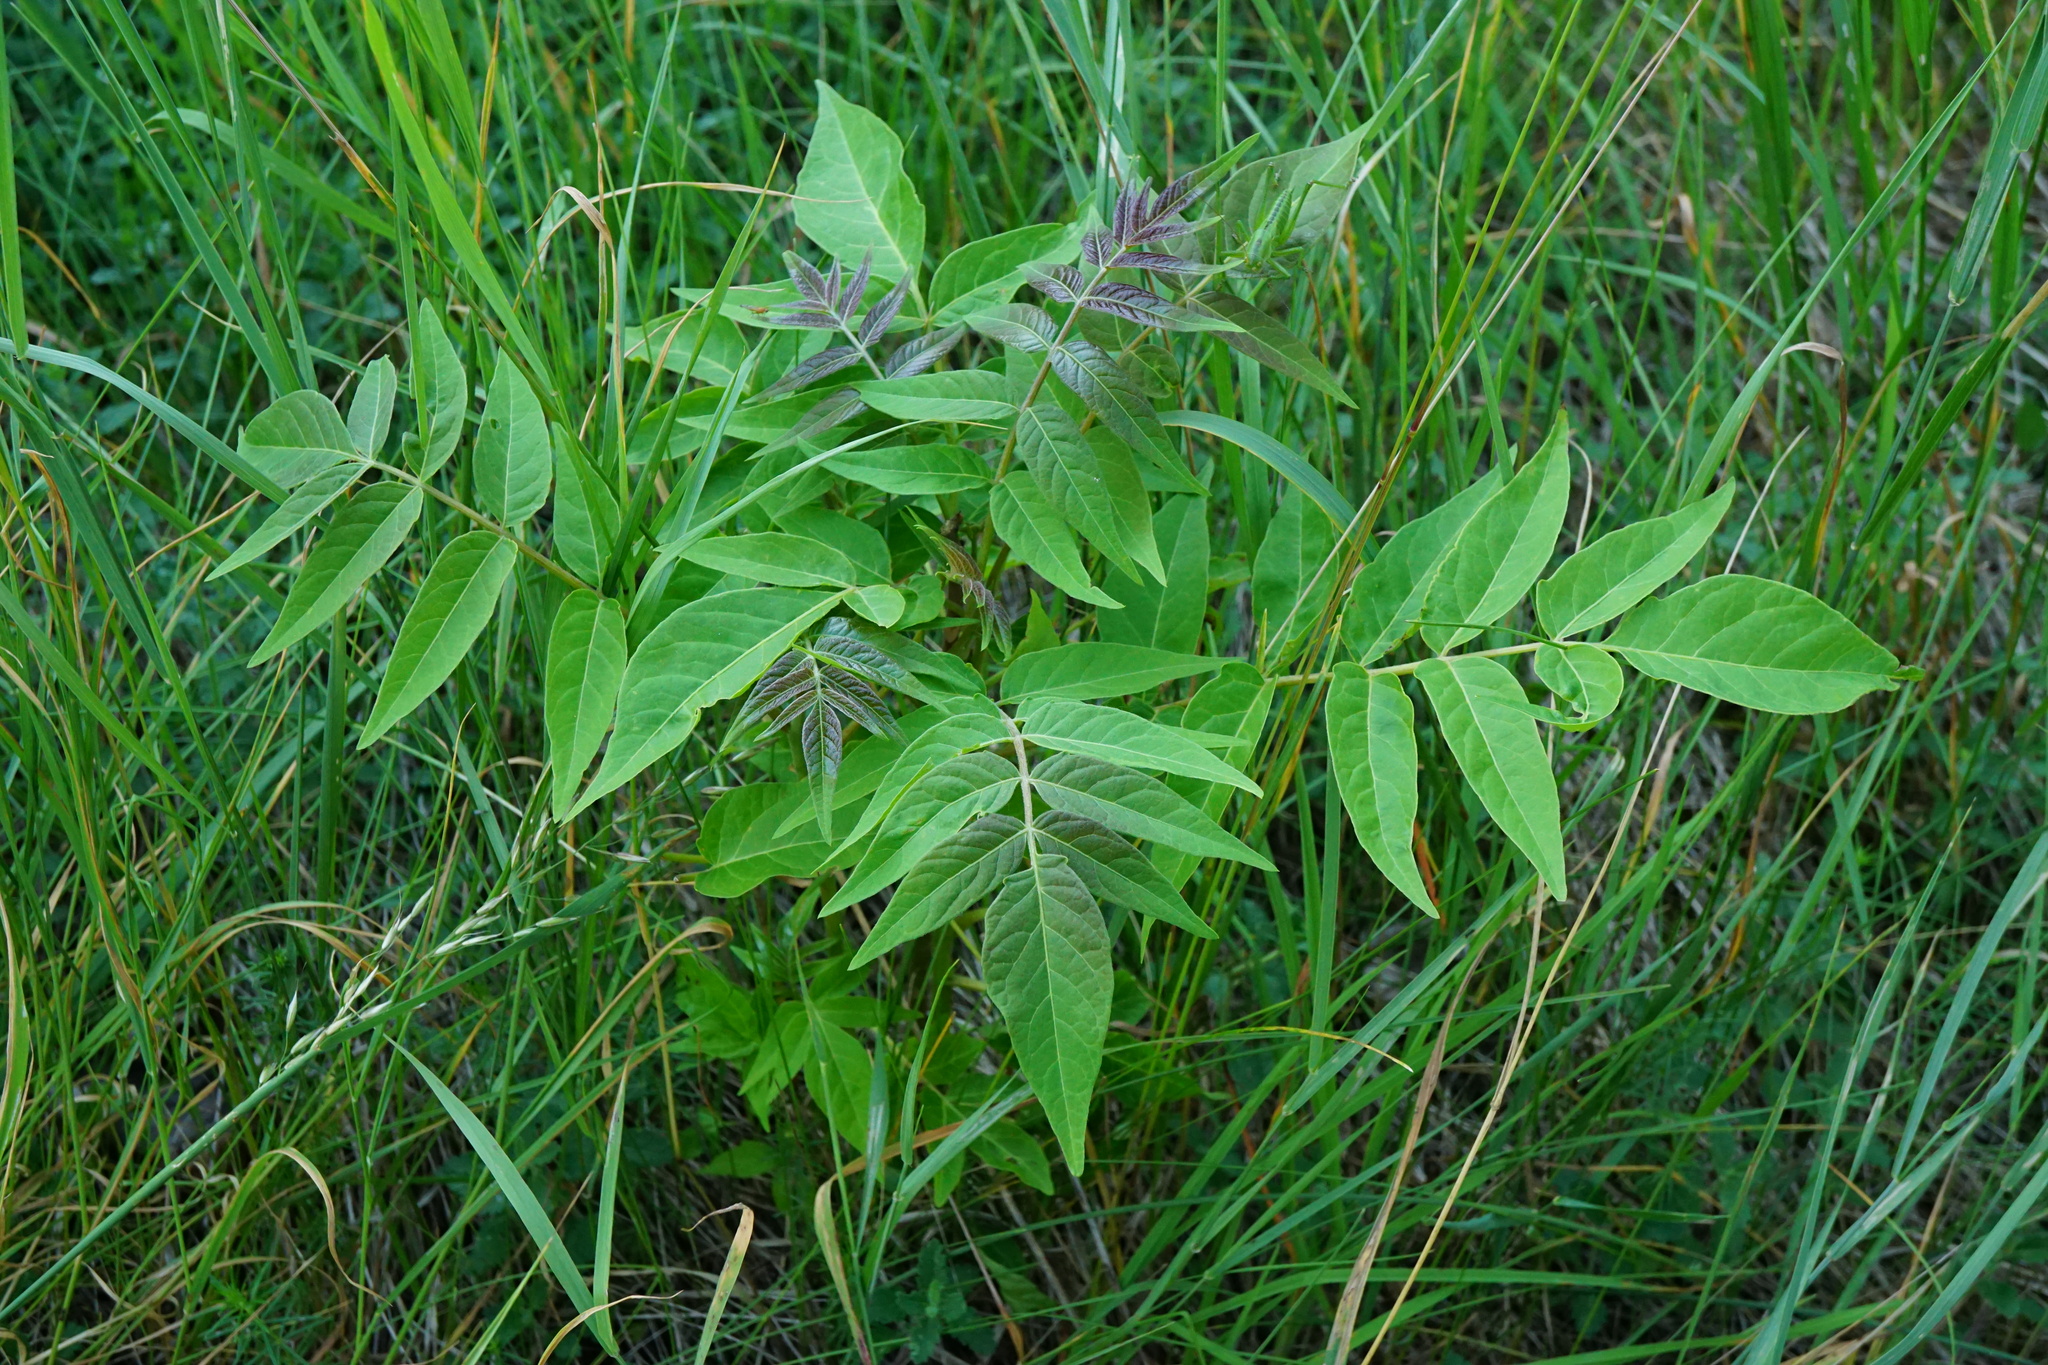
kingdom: Plantae
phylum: Tracheophyta
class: Magnoliopsida
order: Sapindales
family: Simaroubaceae
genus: Ailanthus
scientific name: Ailanthus altissima
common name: Tree-of-heaven
